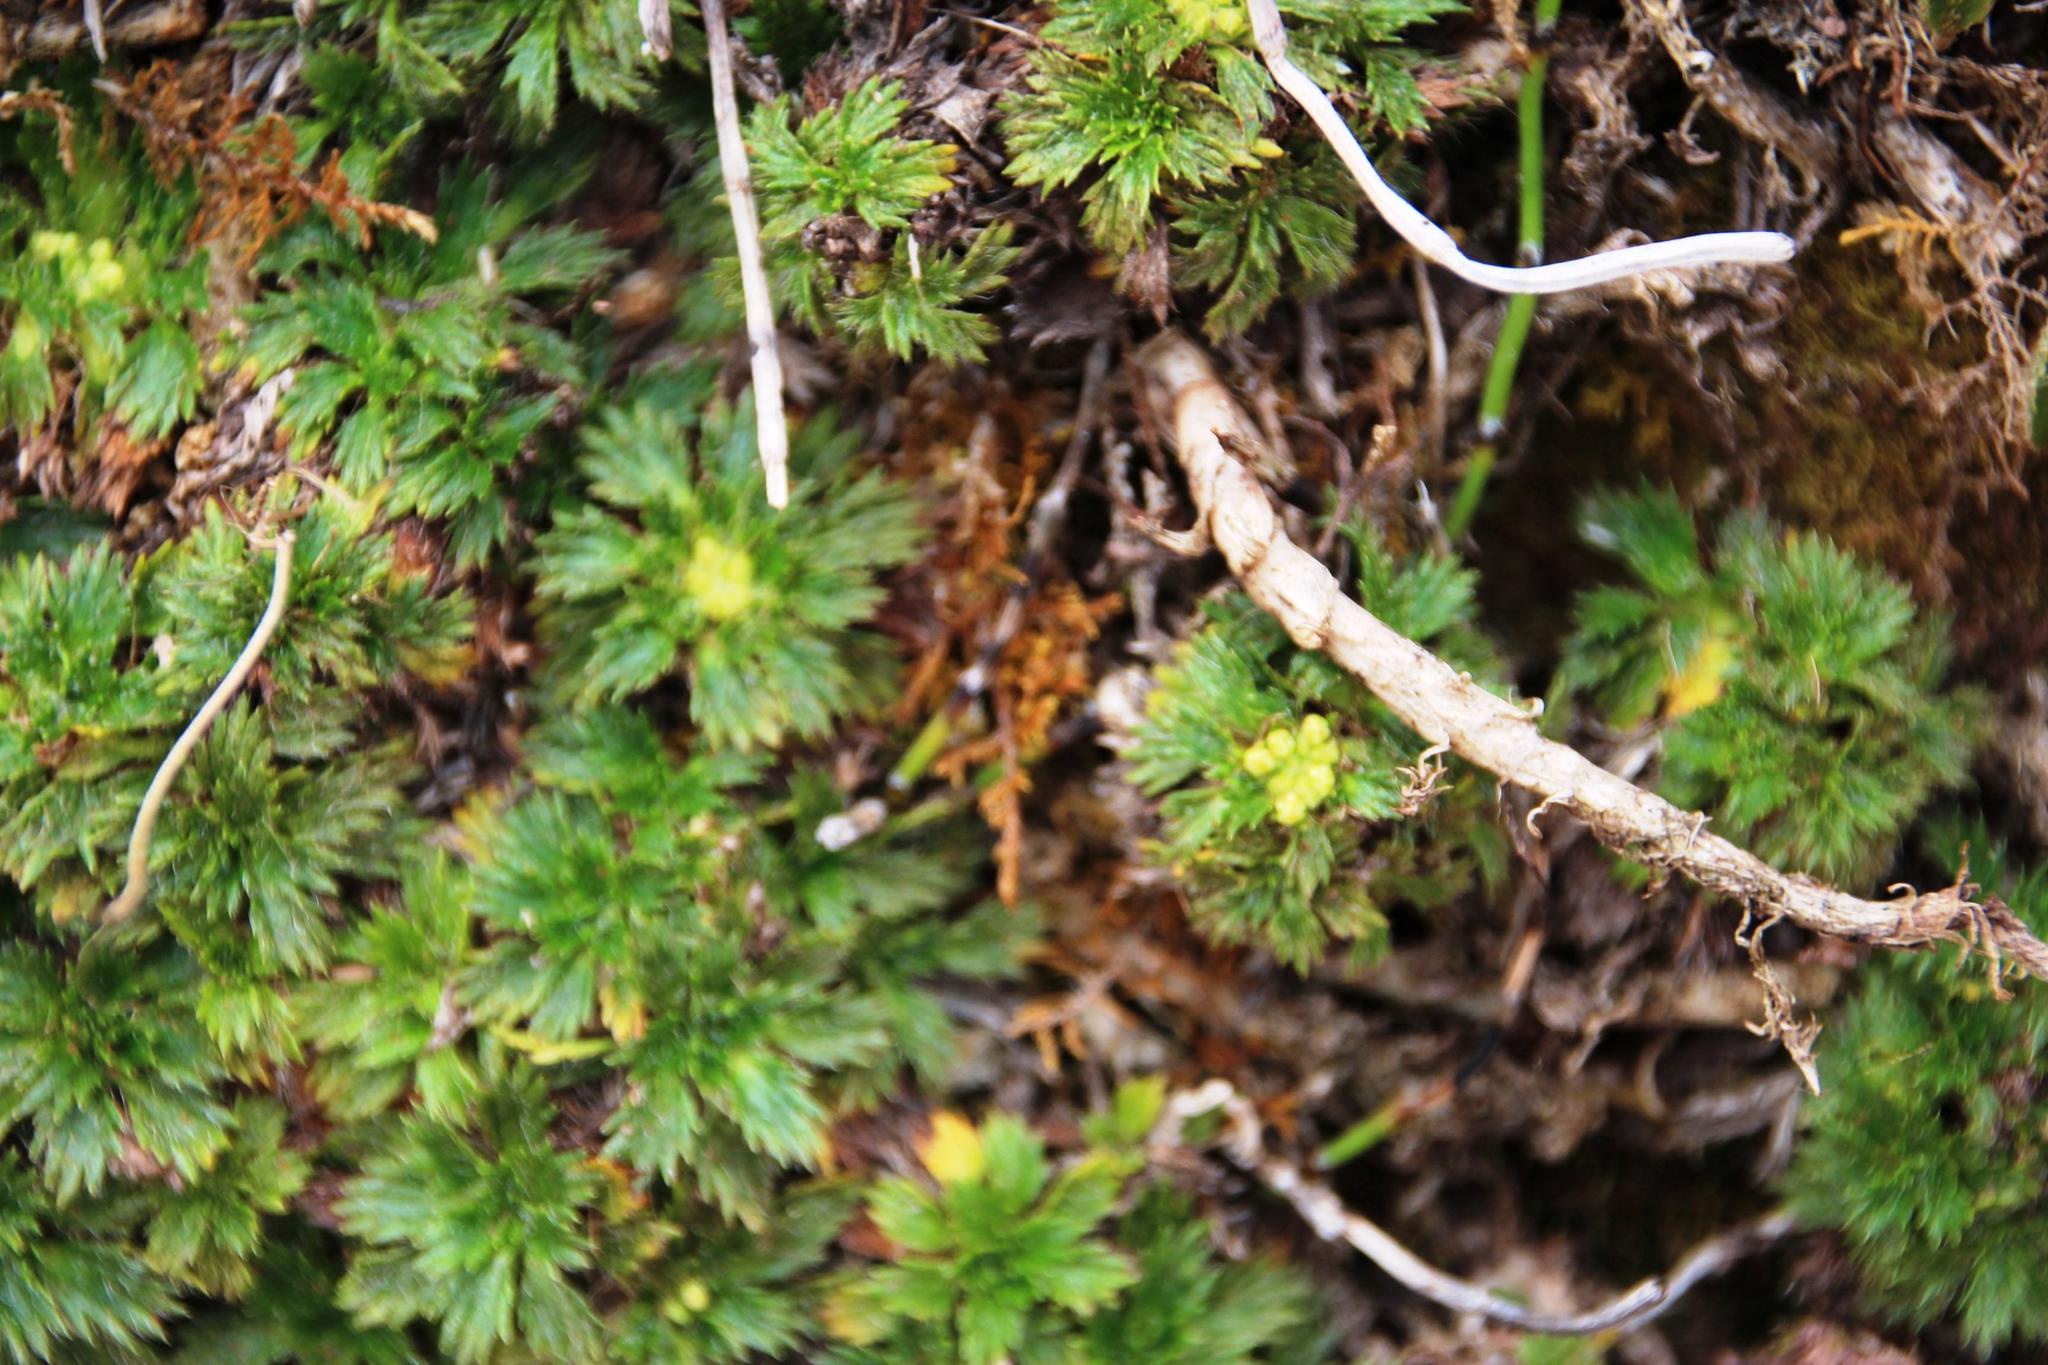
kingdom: Plantae
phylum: Tracheophyta
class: Magnoliopsida
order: Apiales
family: Apiaceae
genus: Azorella
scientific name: Azorella multifida
